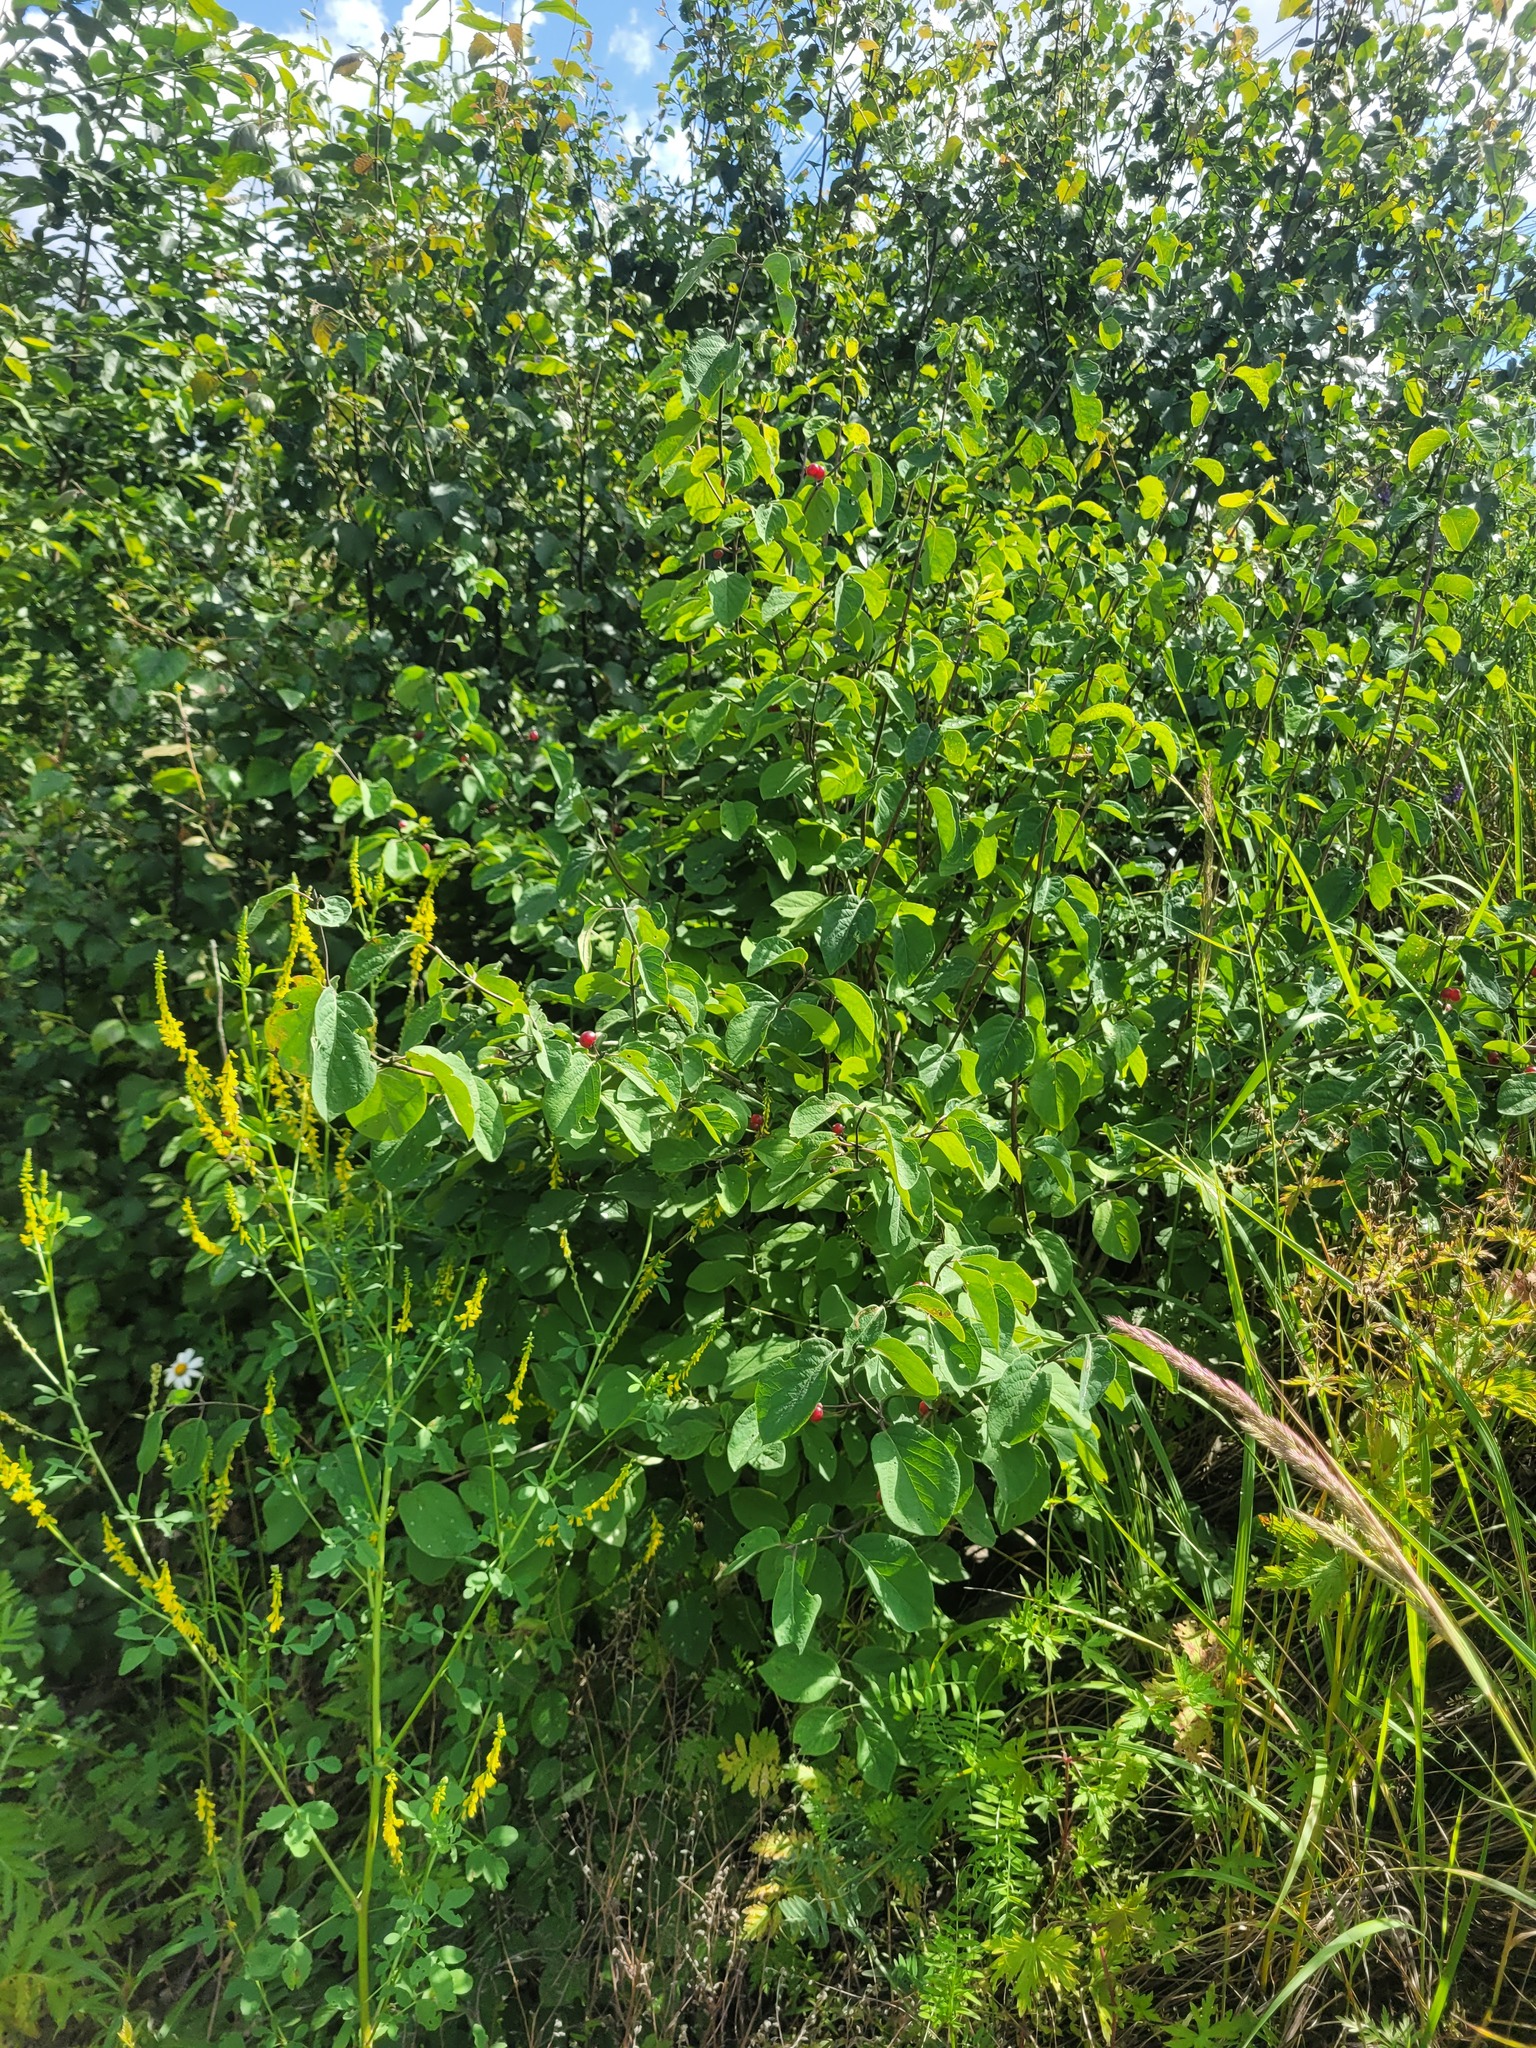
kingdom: Plantae
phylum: Tracheophyta
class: Magnoliopsida
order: Dipsacales
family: Caprifoliaceae
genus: Lonicera
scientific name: Lonicera xylosteum
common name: Fly honeysuckle
